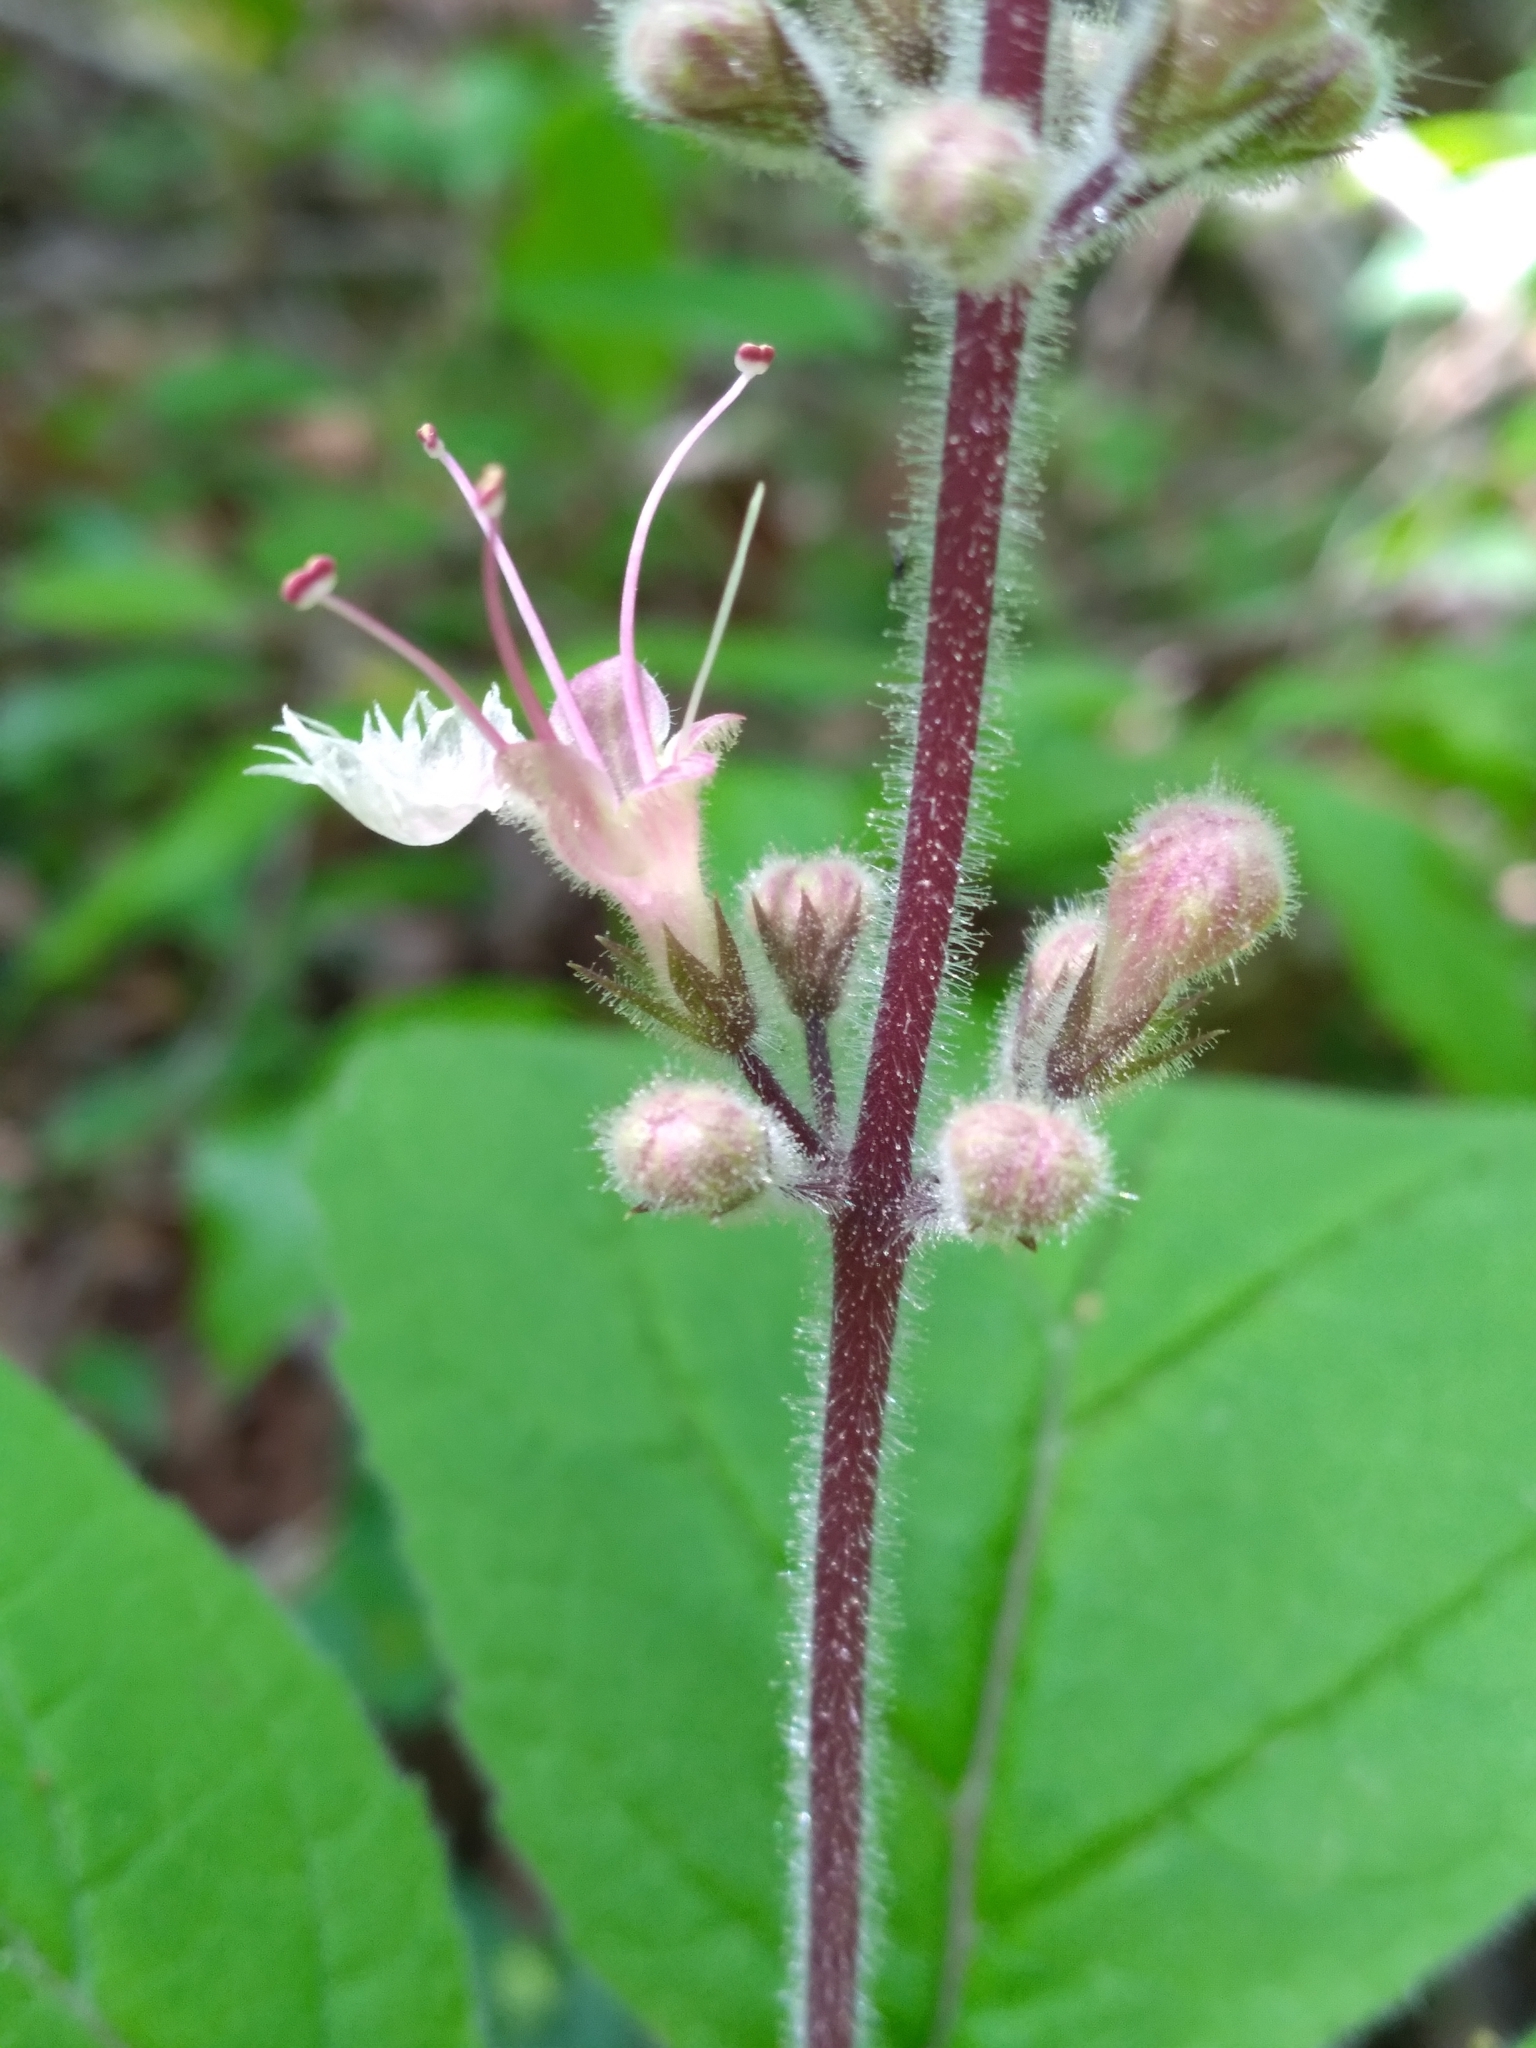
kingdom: Plantae
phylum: Tracheophyta
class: Magnoliopsida
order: Lamiales
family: Lamiaceae
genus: Collinsonia
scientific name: Collinsonia verticillata
